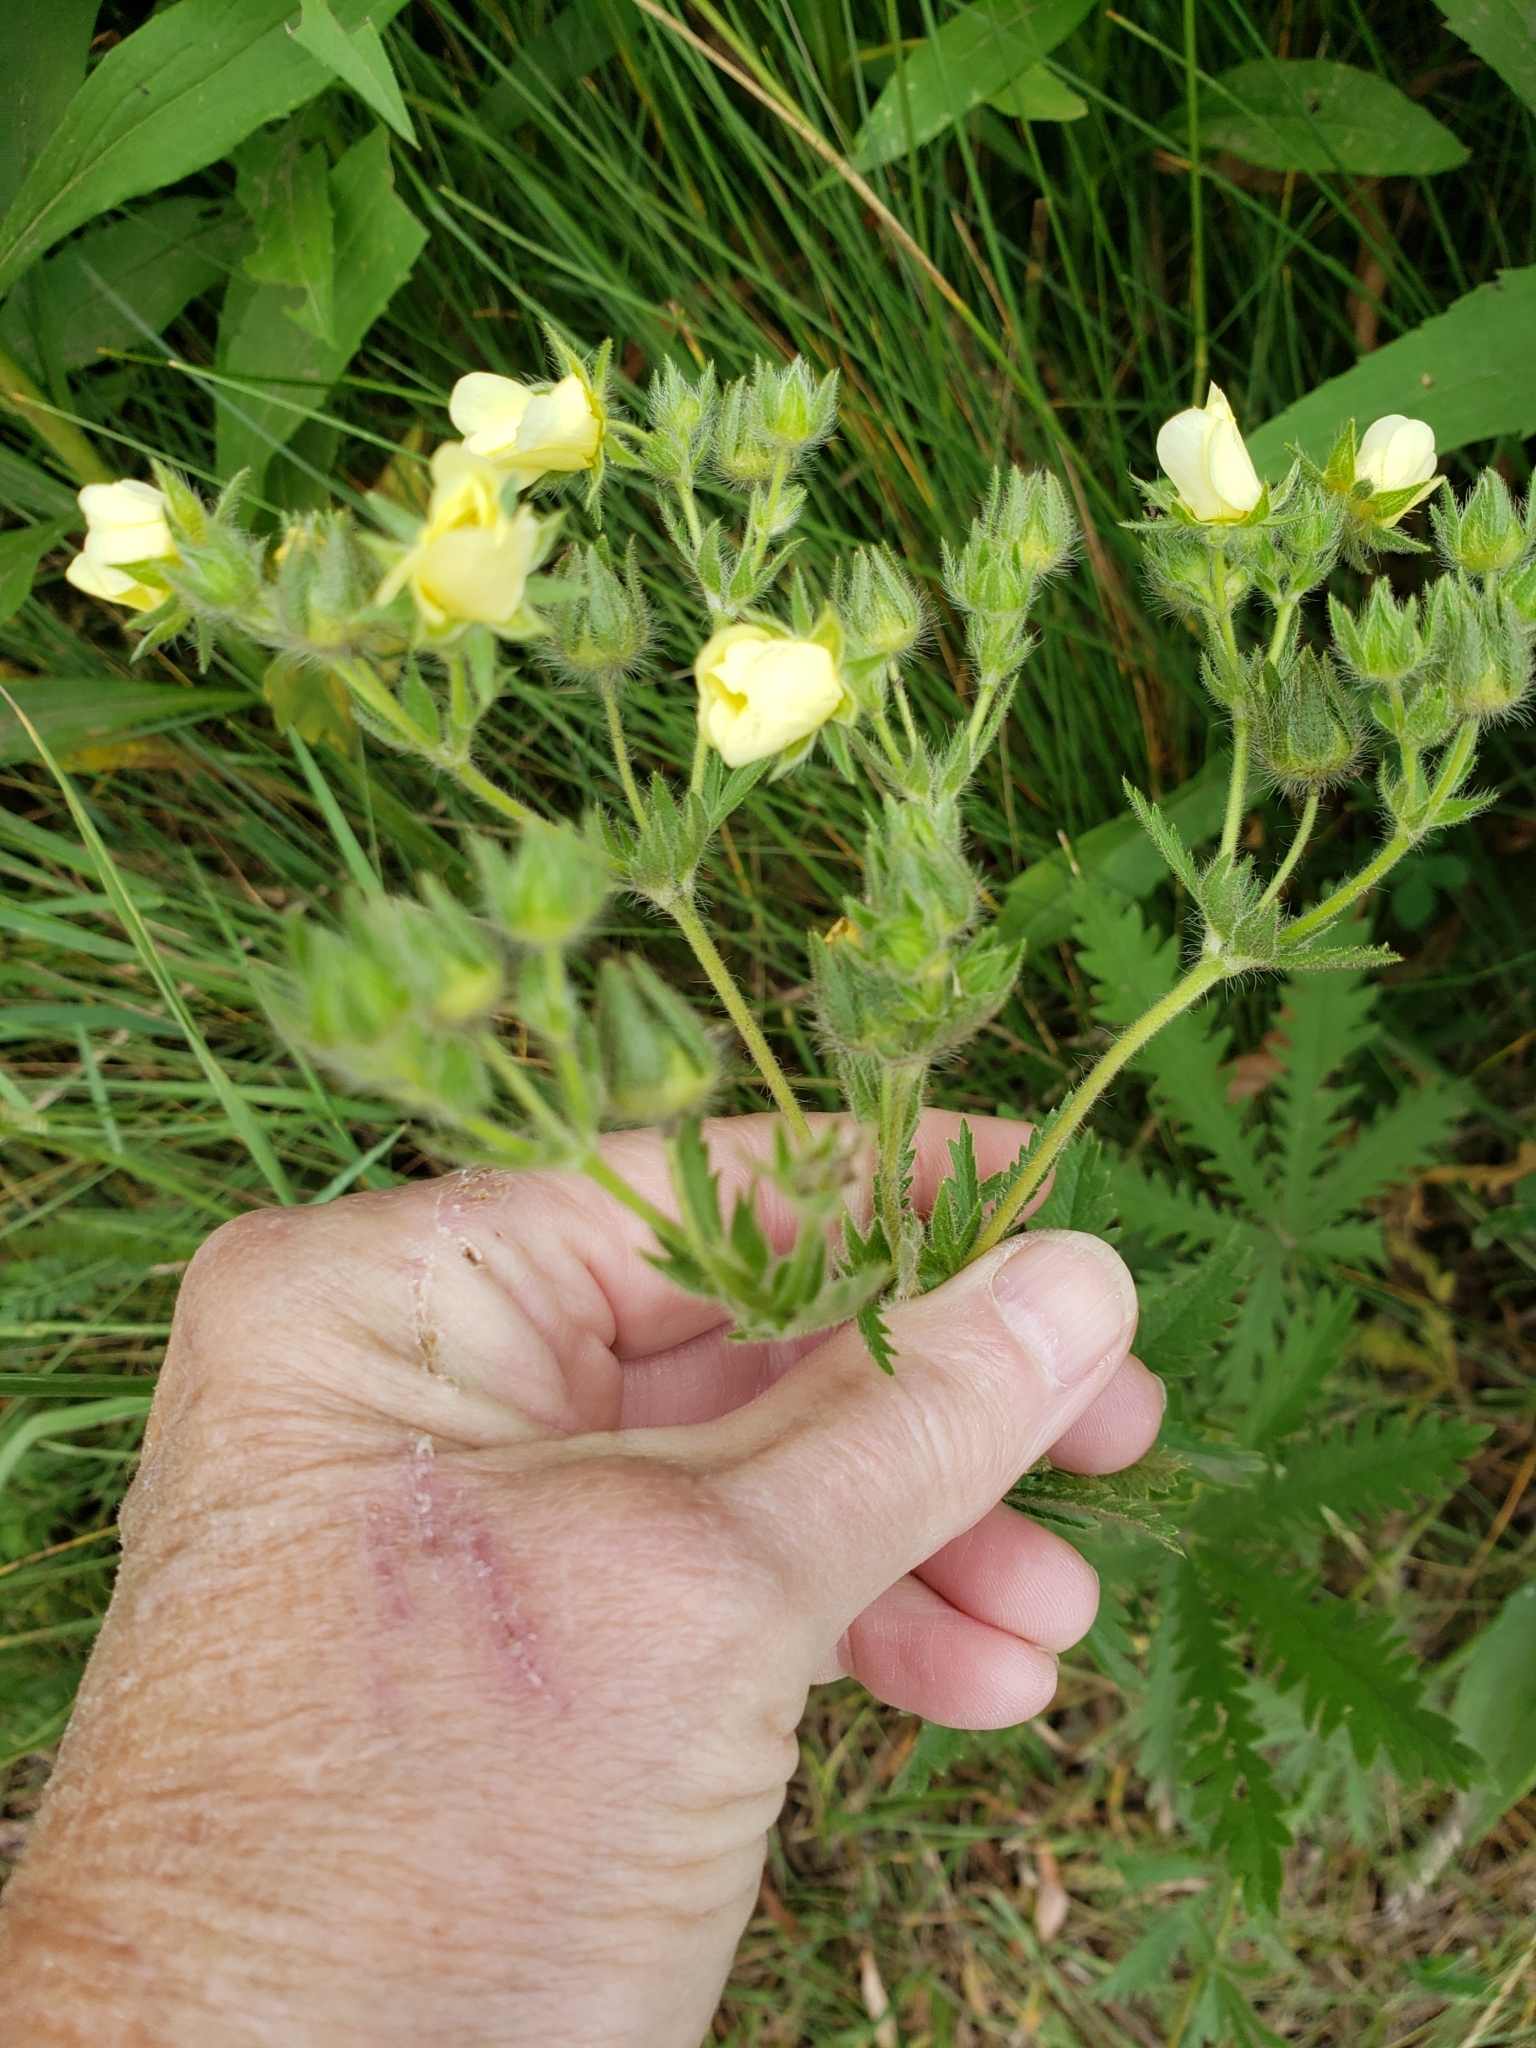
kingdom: Plantae
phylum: Tracheophyta
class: Magnoliopsida
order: Rosales
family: Rosaceae
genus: Potentilla
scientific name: Potentilla recta
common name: Sulphur cinquefoil
